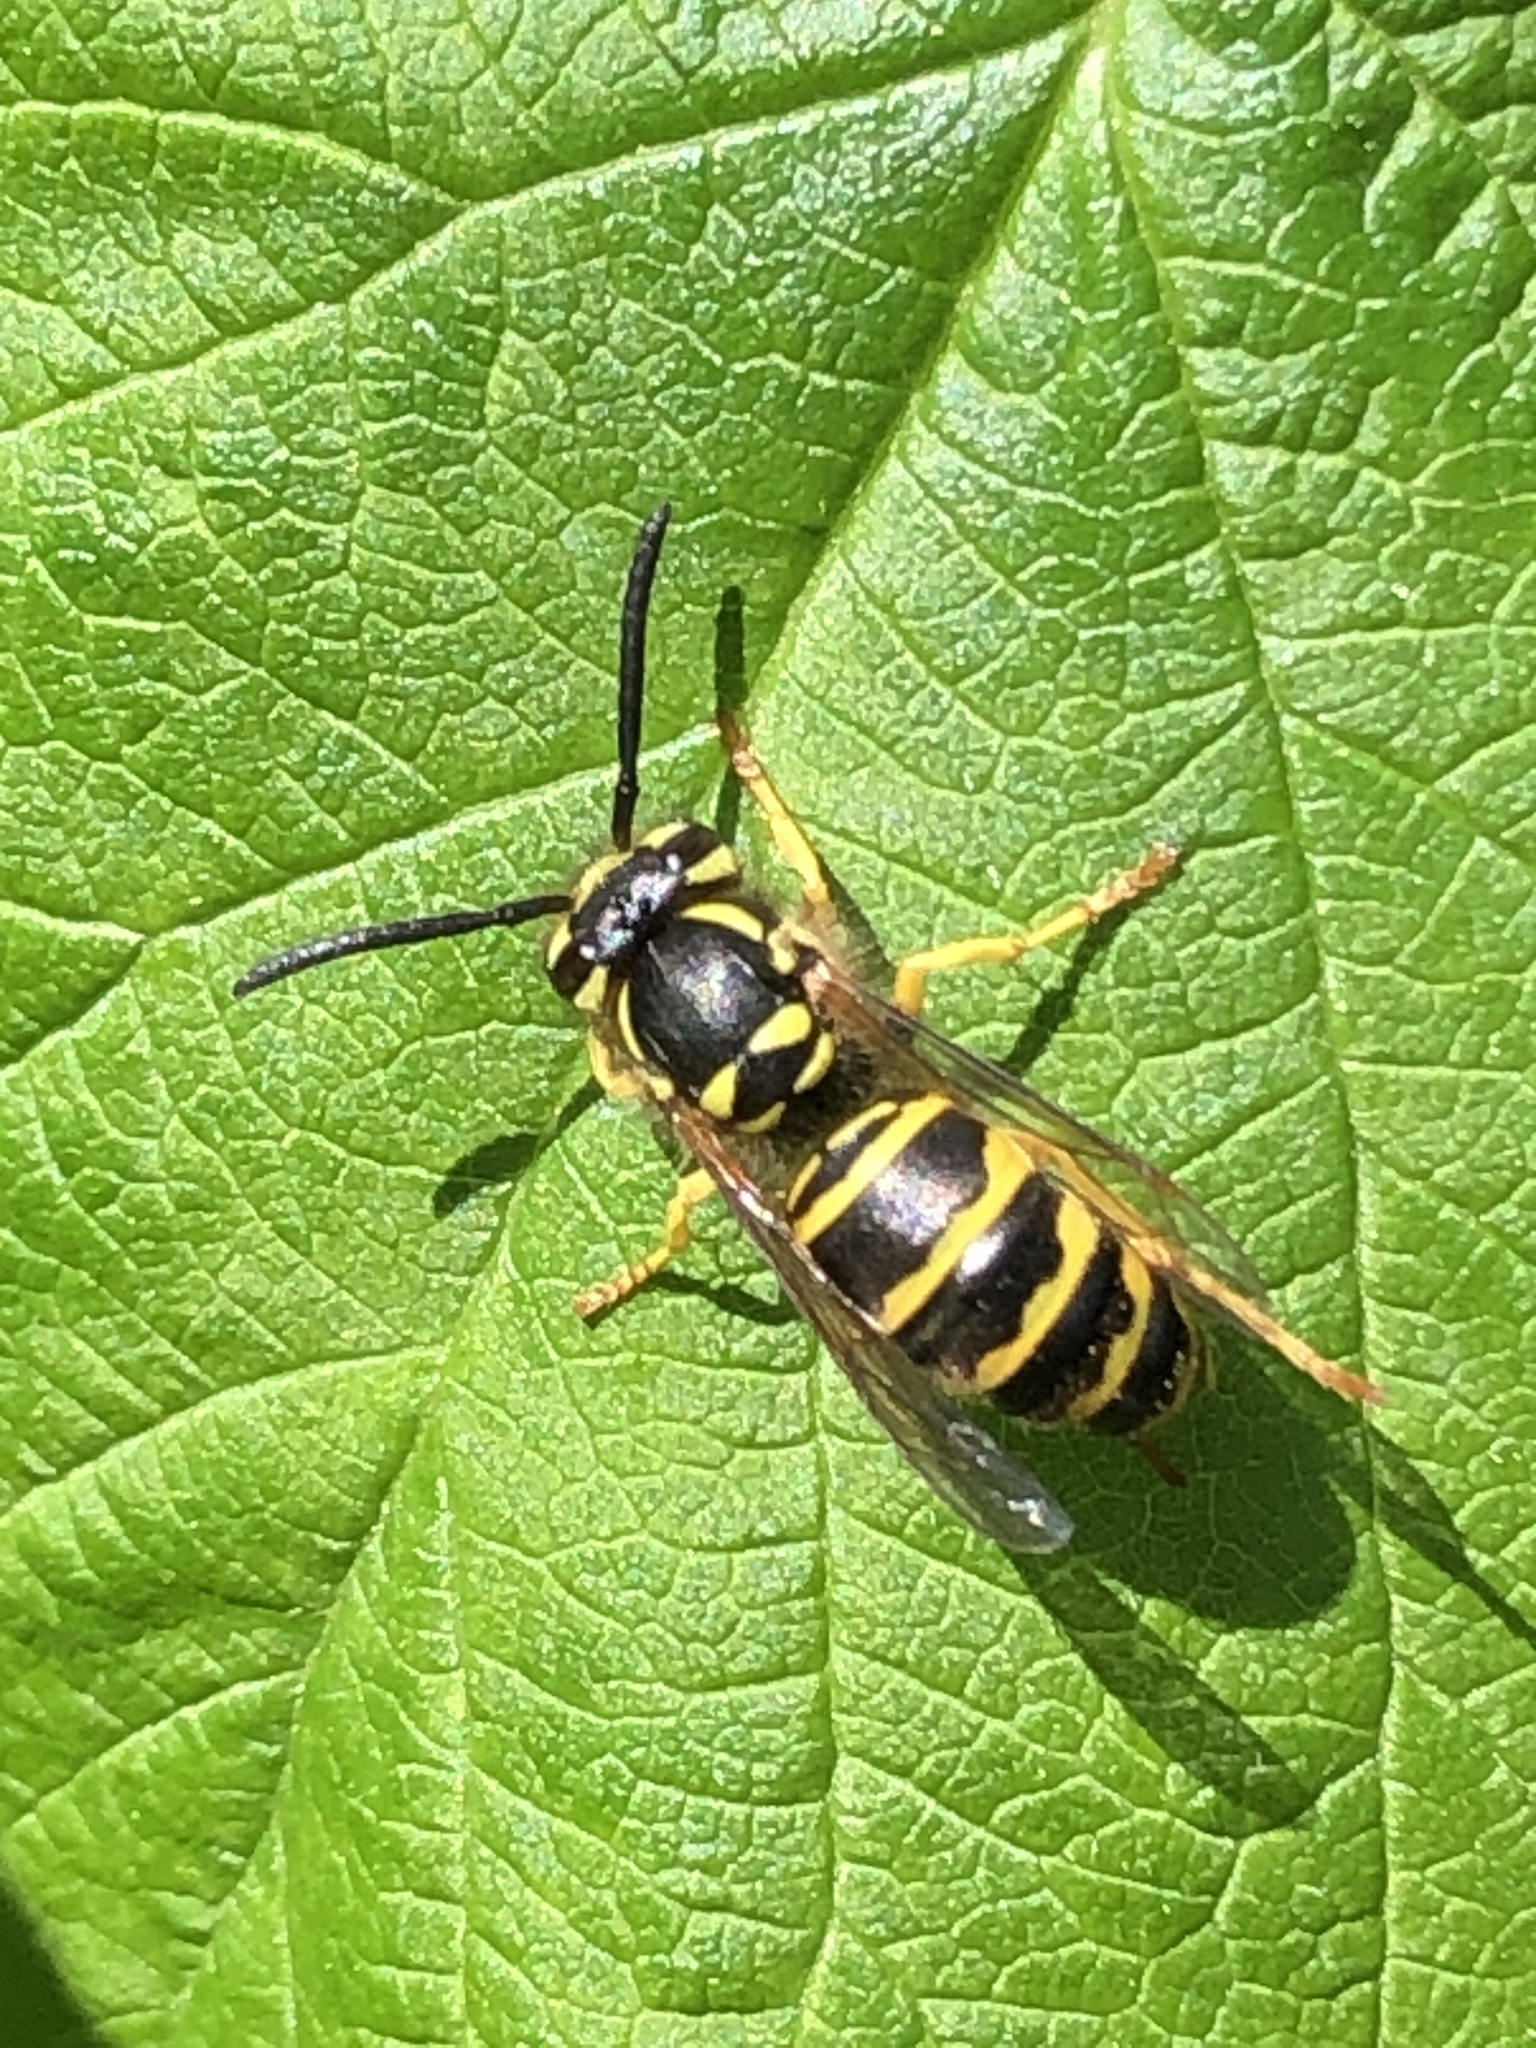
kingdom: Animalia
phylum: Arthropoda
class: Insecta
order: Hymenoptera
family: Vespidae
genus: Vespula
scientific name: Vespula maculifrons
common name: Eastern yellowjacket
